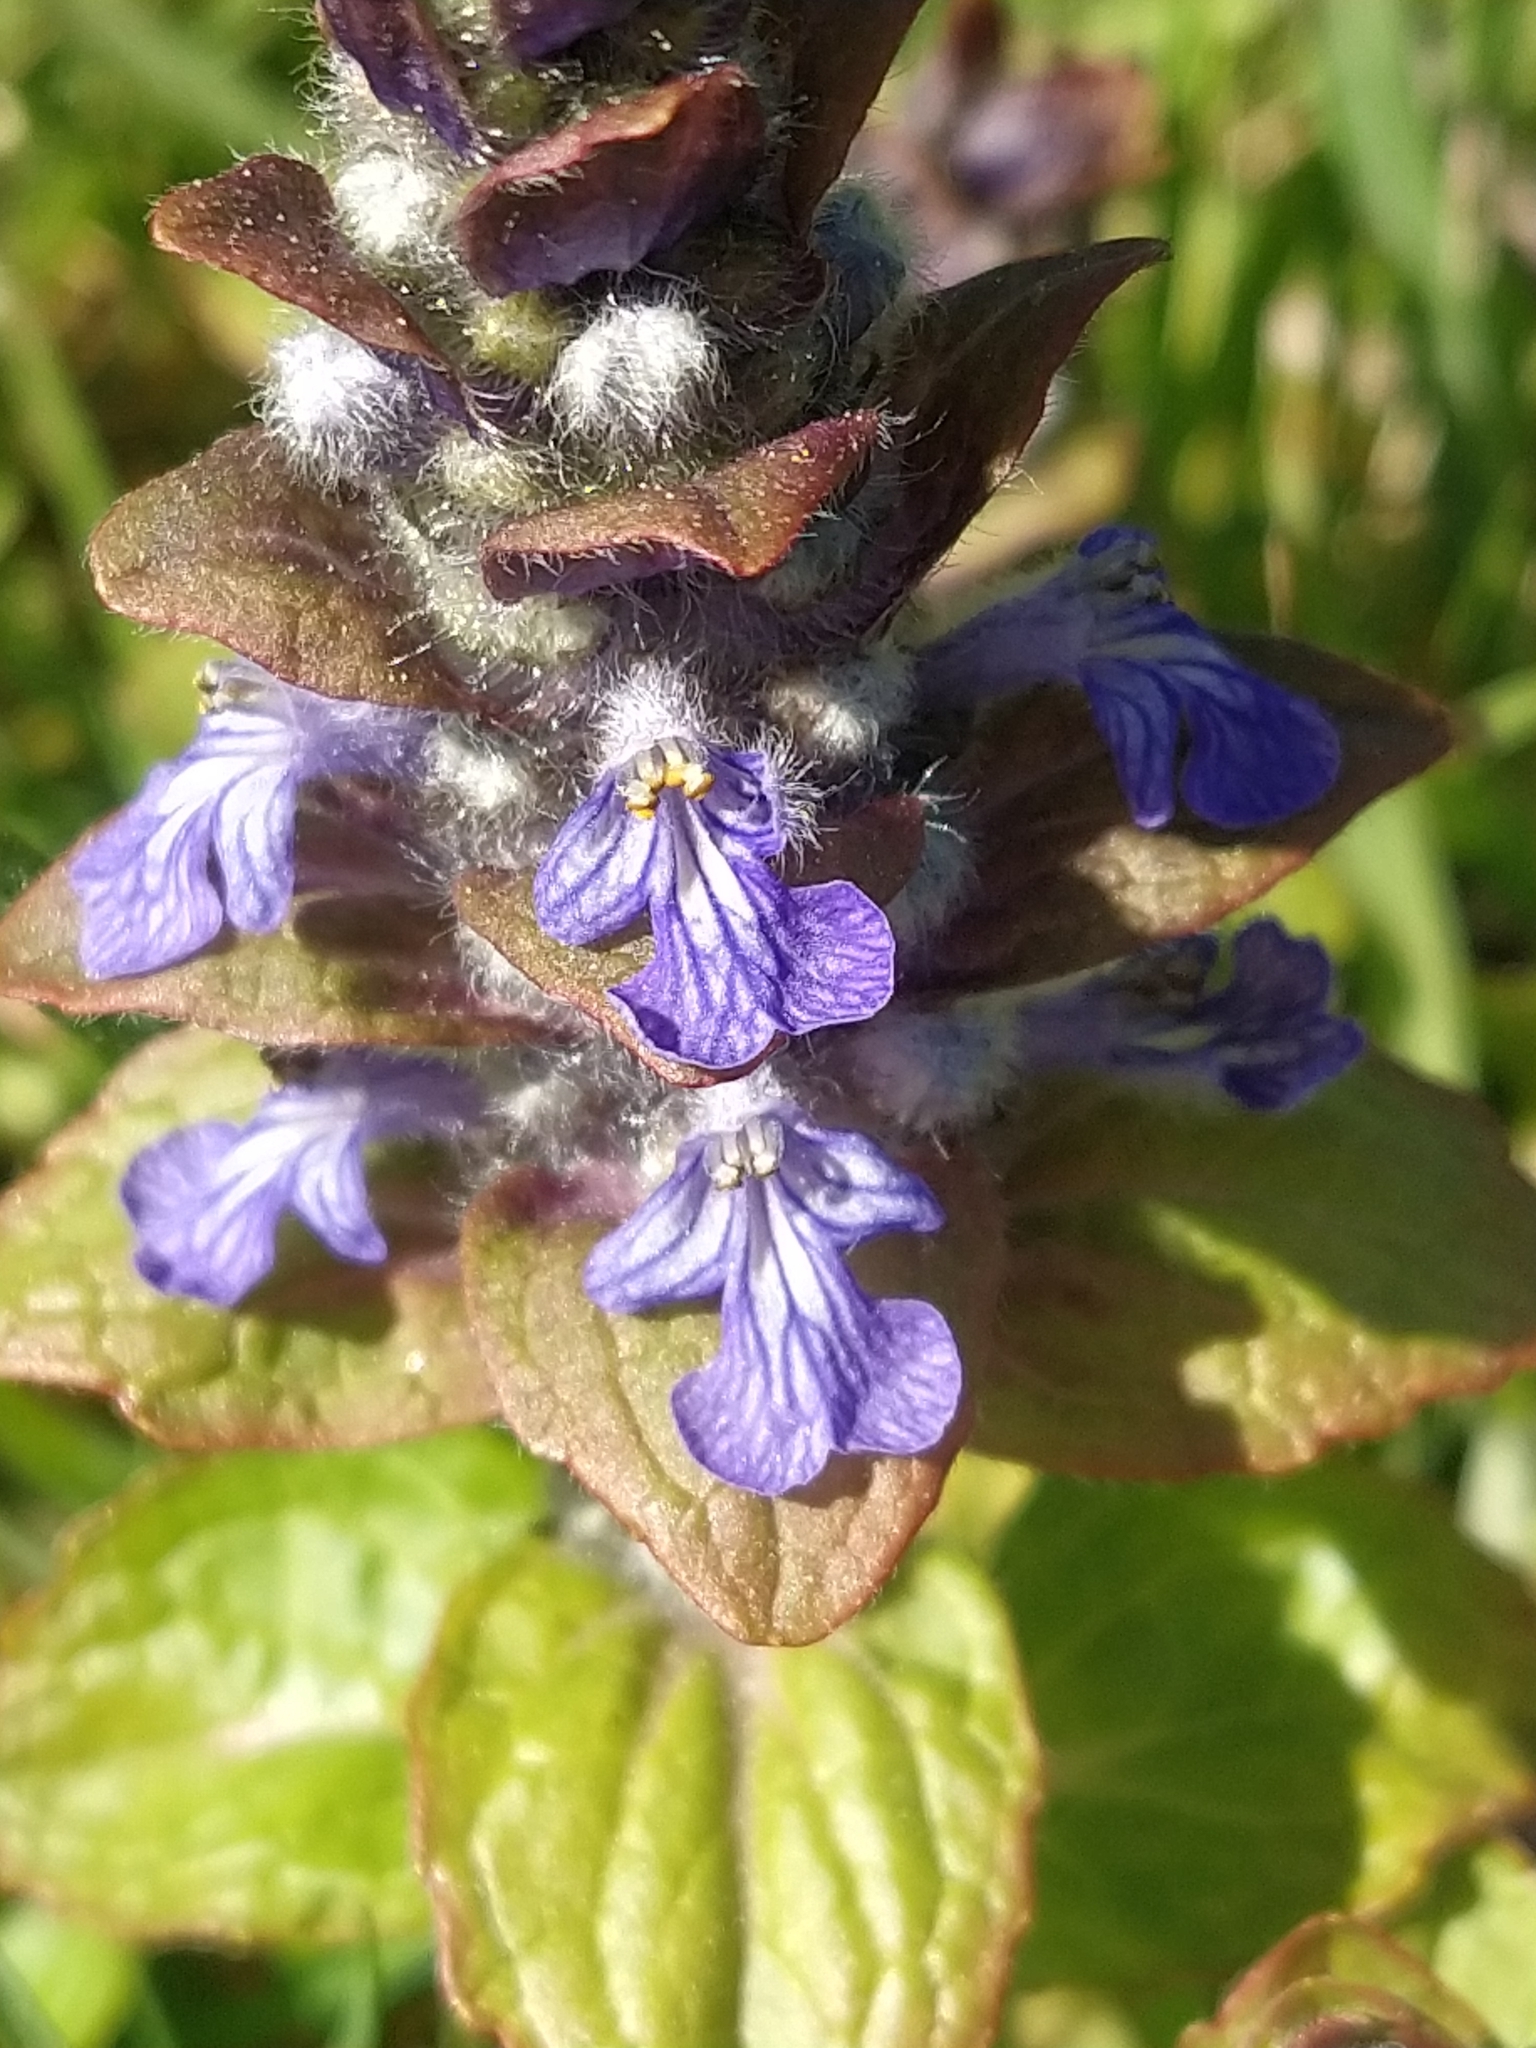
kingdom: Plantae
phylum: Tracheophyta
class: Magnoliopsida
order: Lamiales
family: Lamiaceae
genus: Ajuga
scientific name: Ajuga reptans
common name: Bugle
